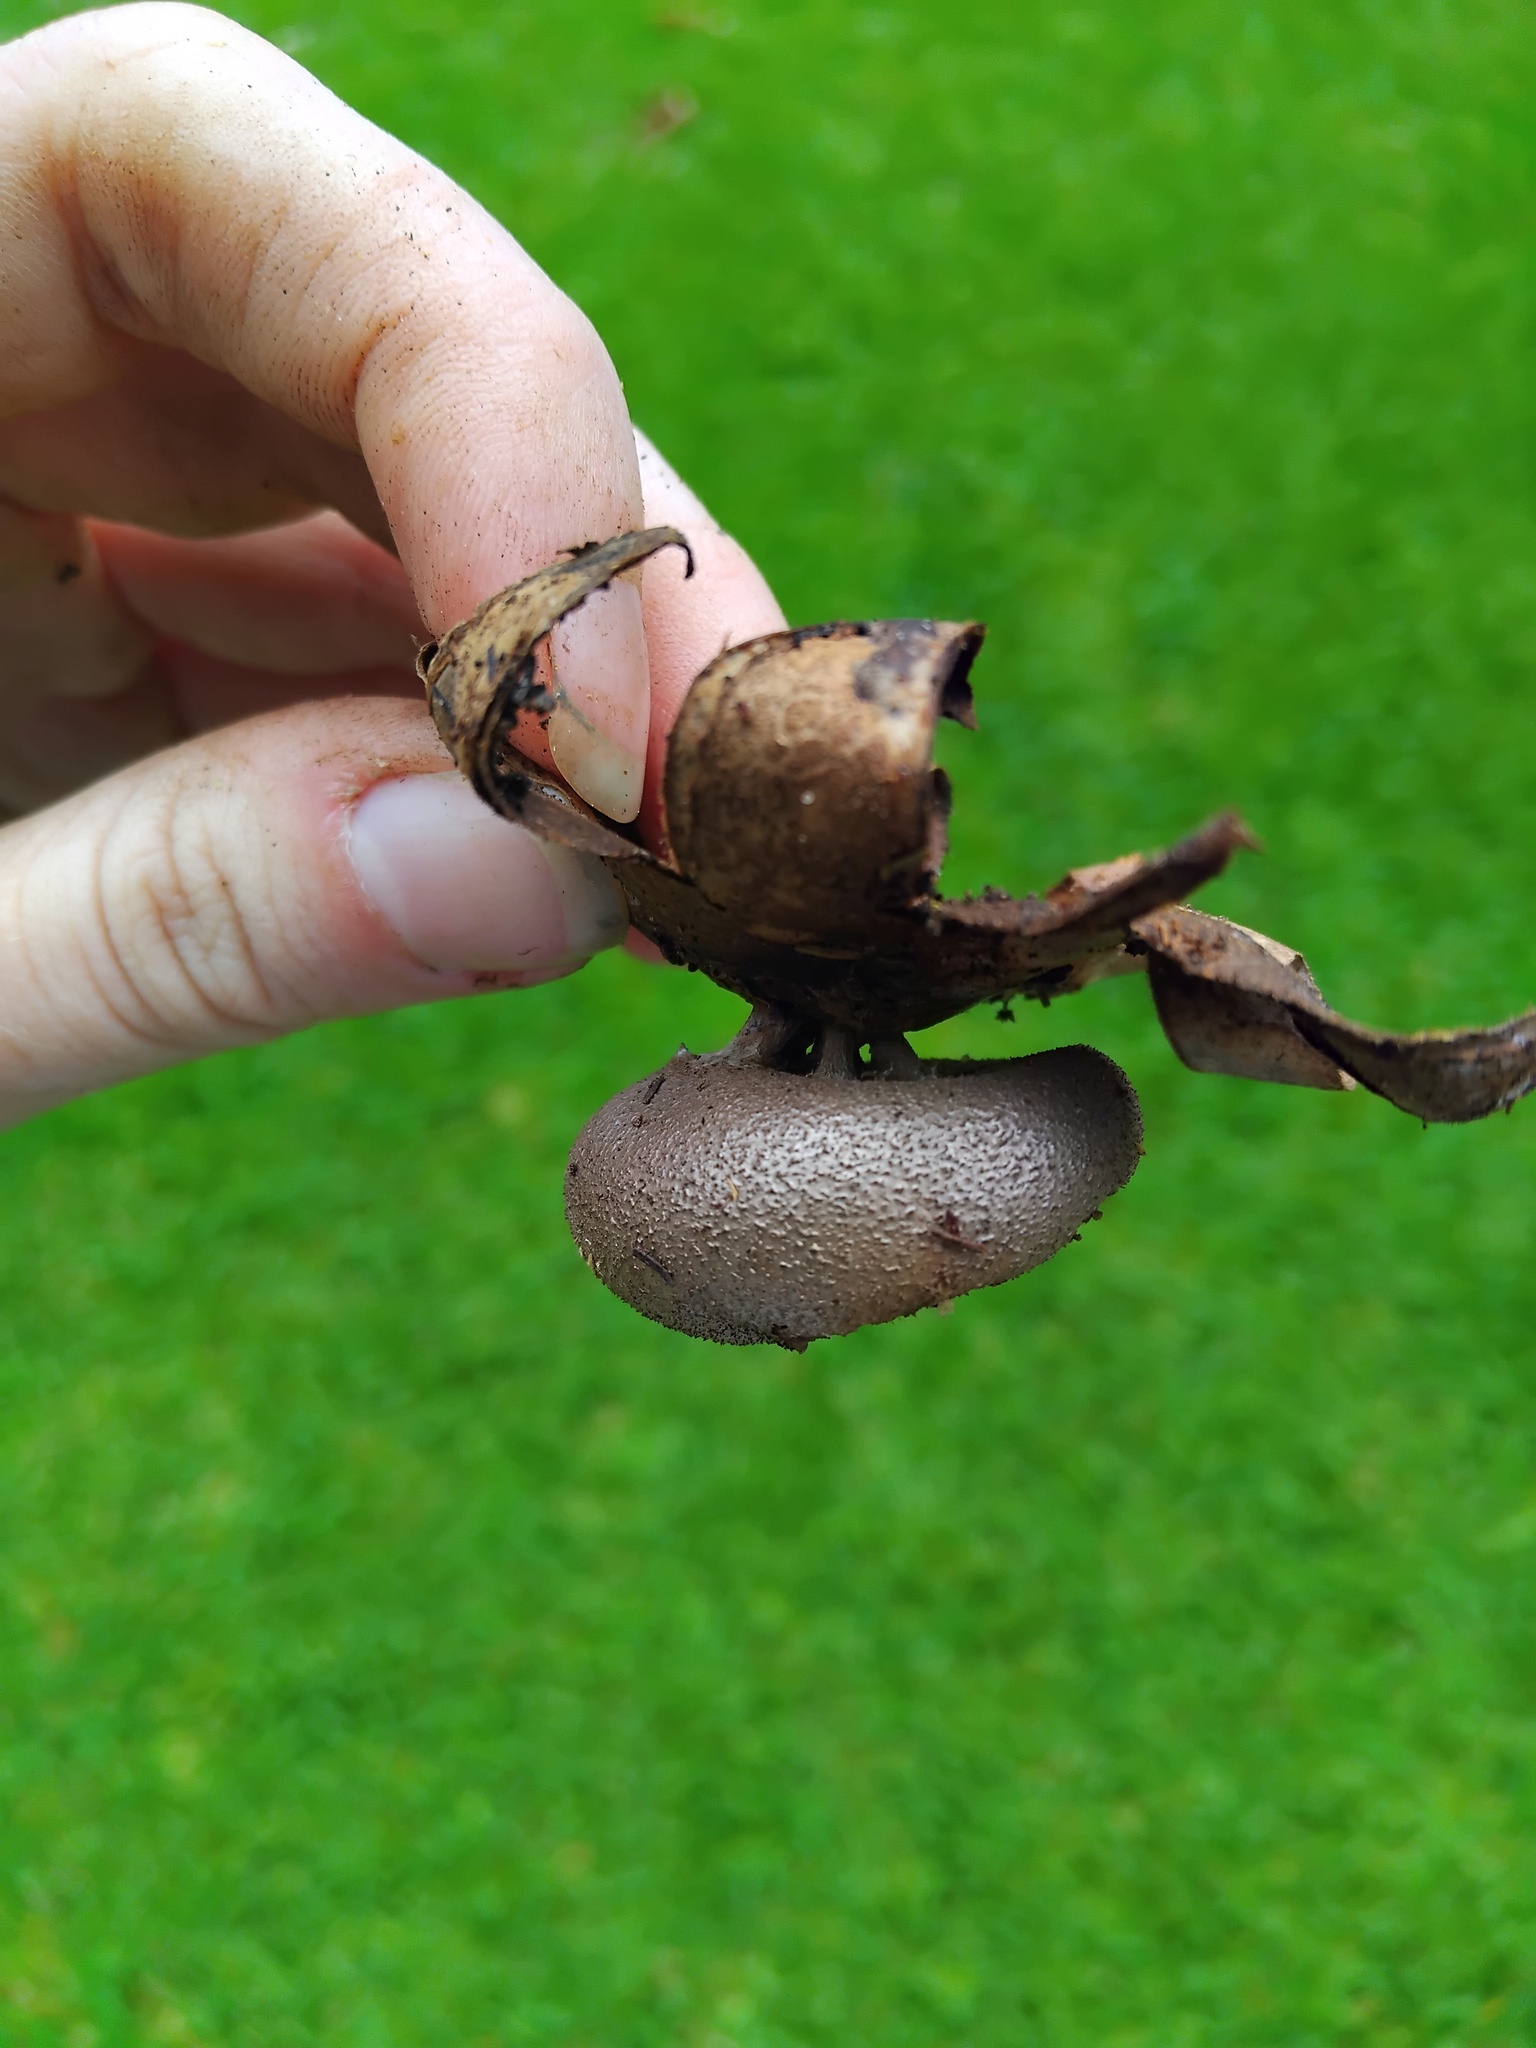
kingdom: Fungi
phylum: Basidiomycota
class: Agaricomycetes
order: Geastrales
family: Geastraceae
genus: Myriostoma
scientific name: Myriostoma australianum
